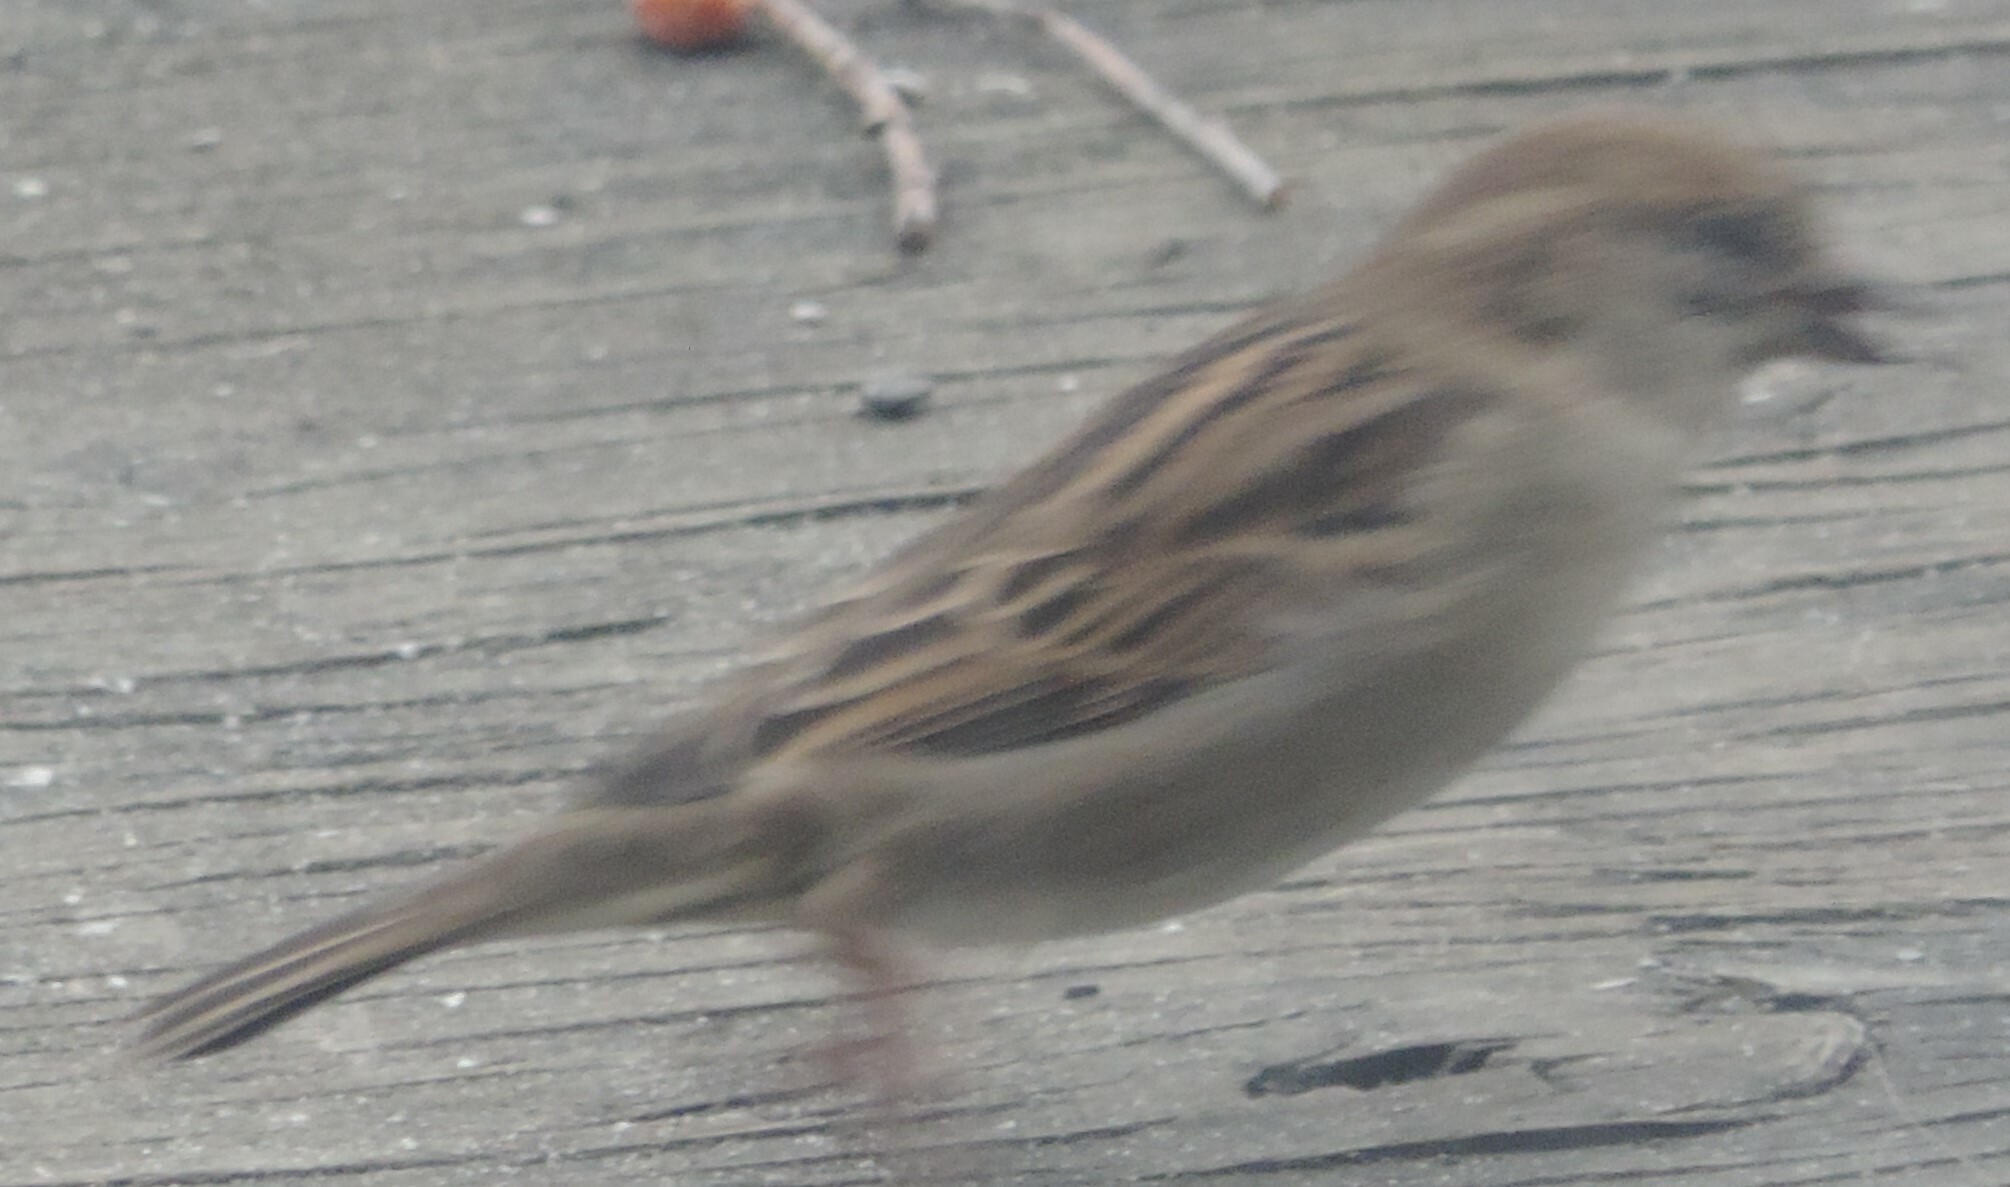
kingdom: Animalia
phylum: Chordata
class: Aves
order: Passeriformes
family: Passeridae
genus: Passer
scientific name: Passer domesticus
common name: House sparrow
